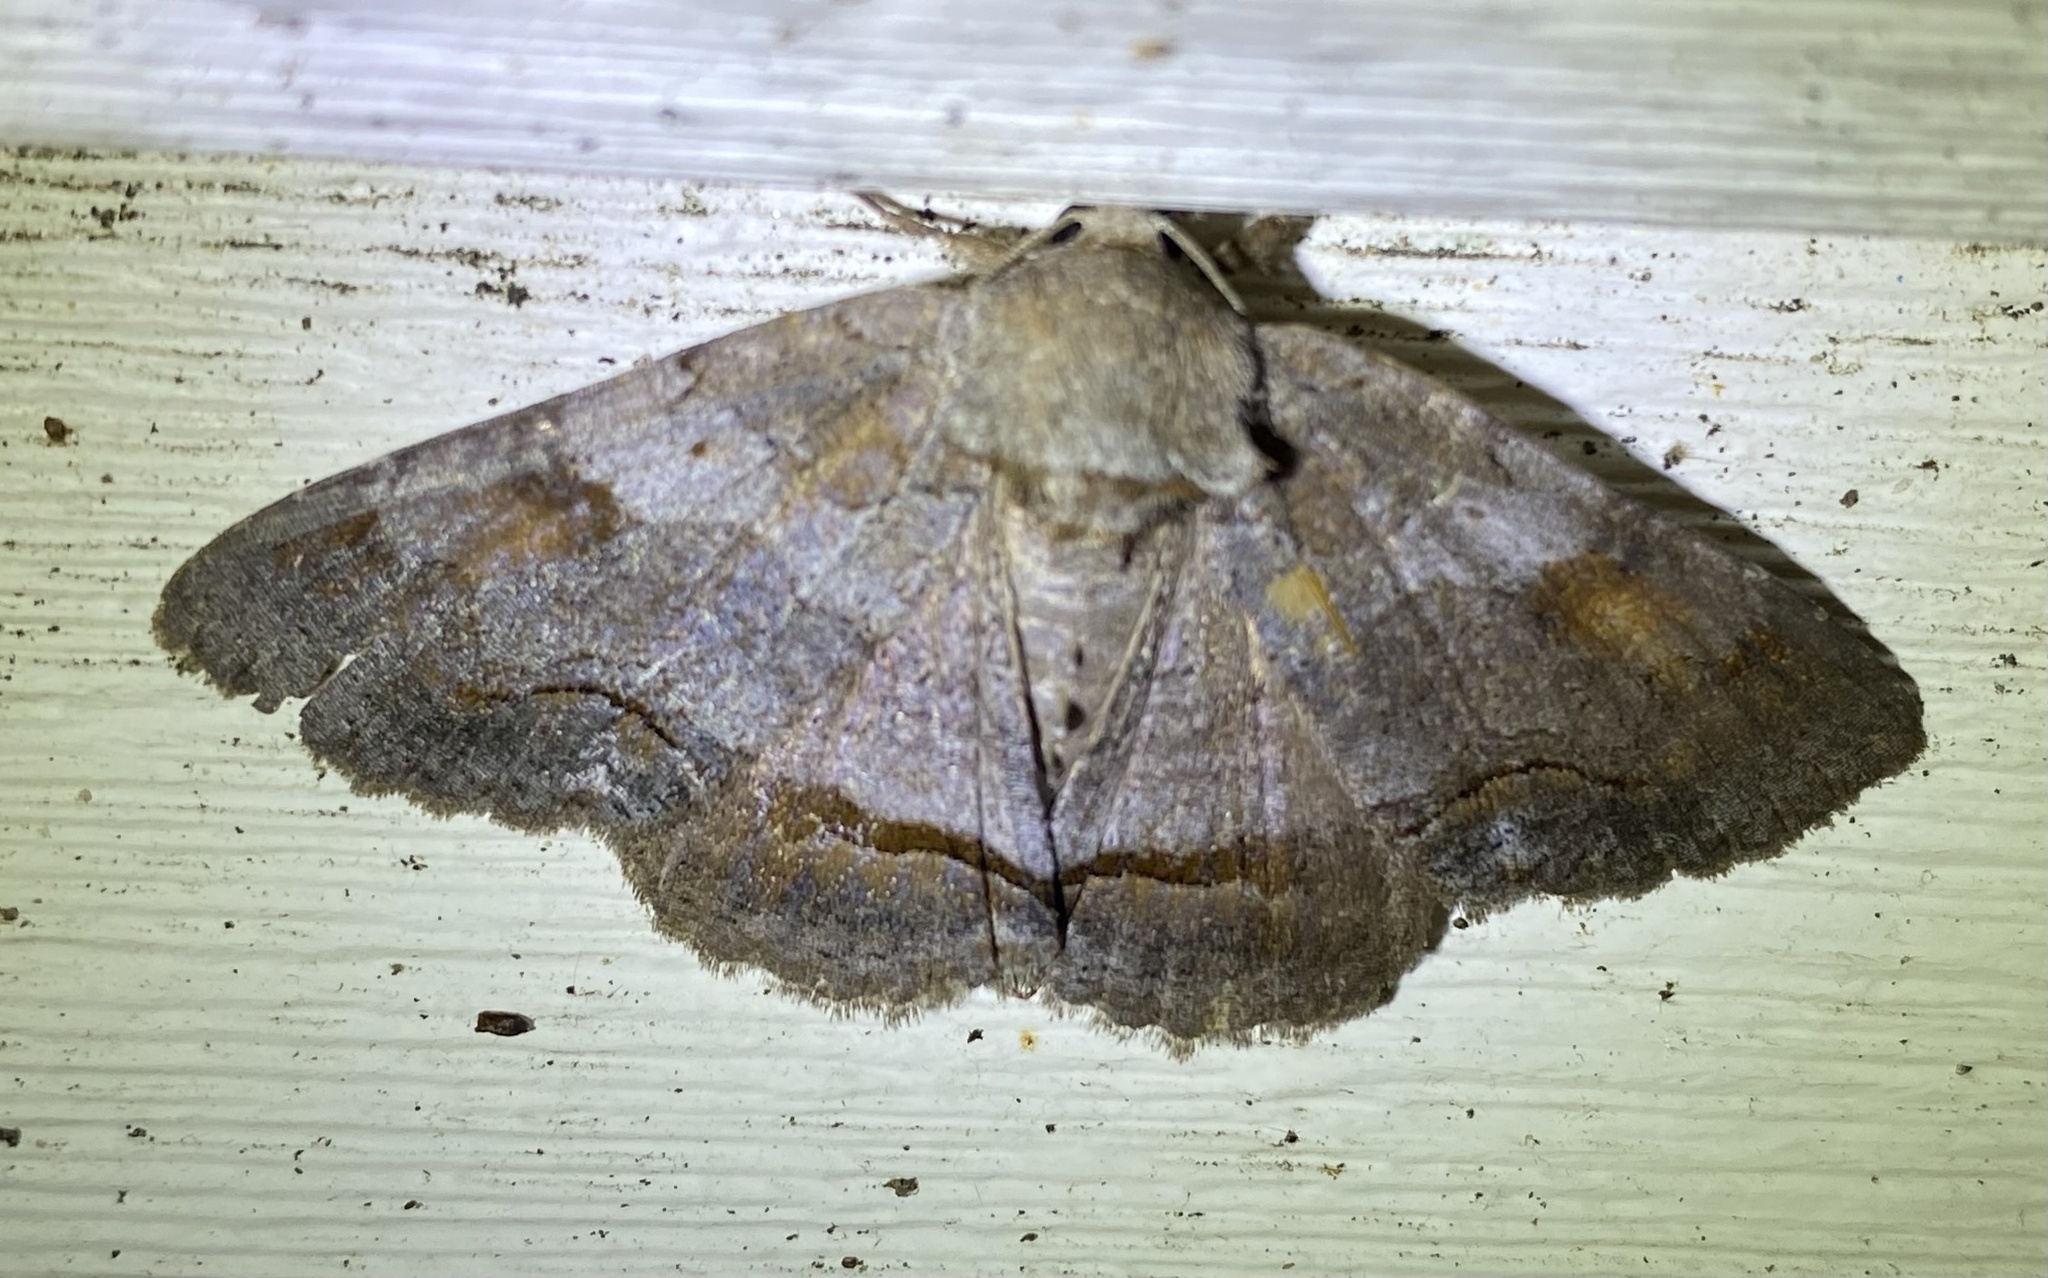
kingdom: Animalia
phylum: Arthropoda
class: Insecta
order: Lepidoptera
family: Erebidae
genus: Zale
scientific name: Zale obliqua
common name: Oblique zale moth
